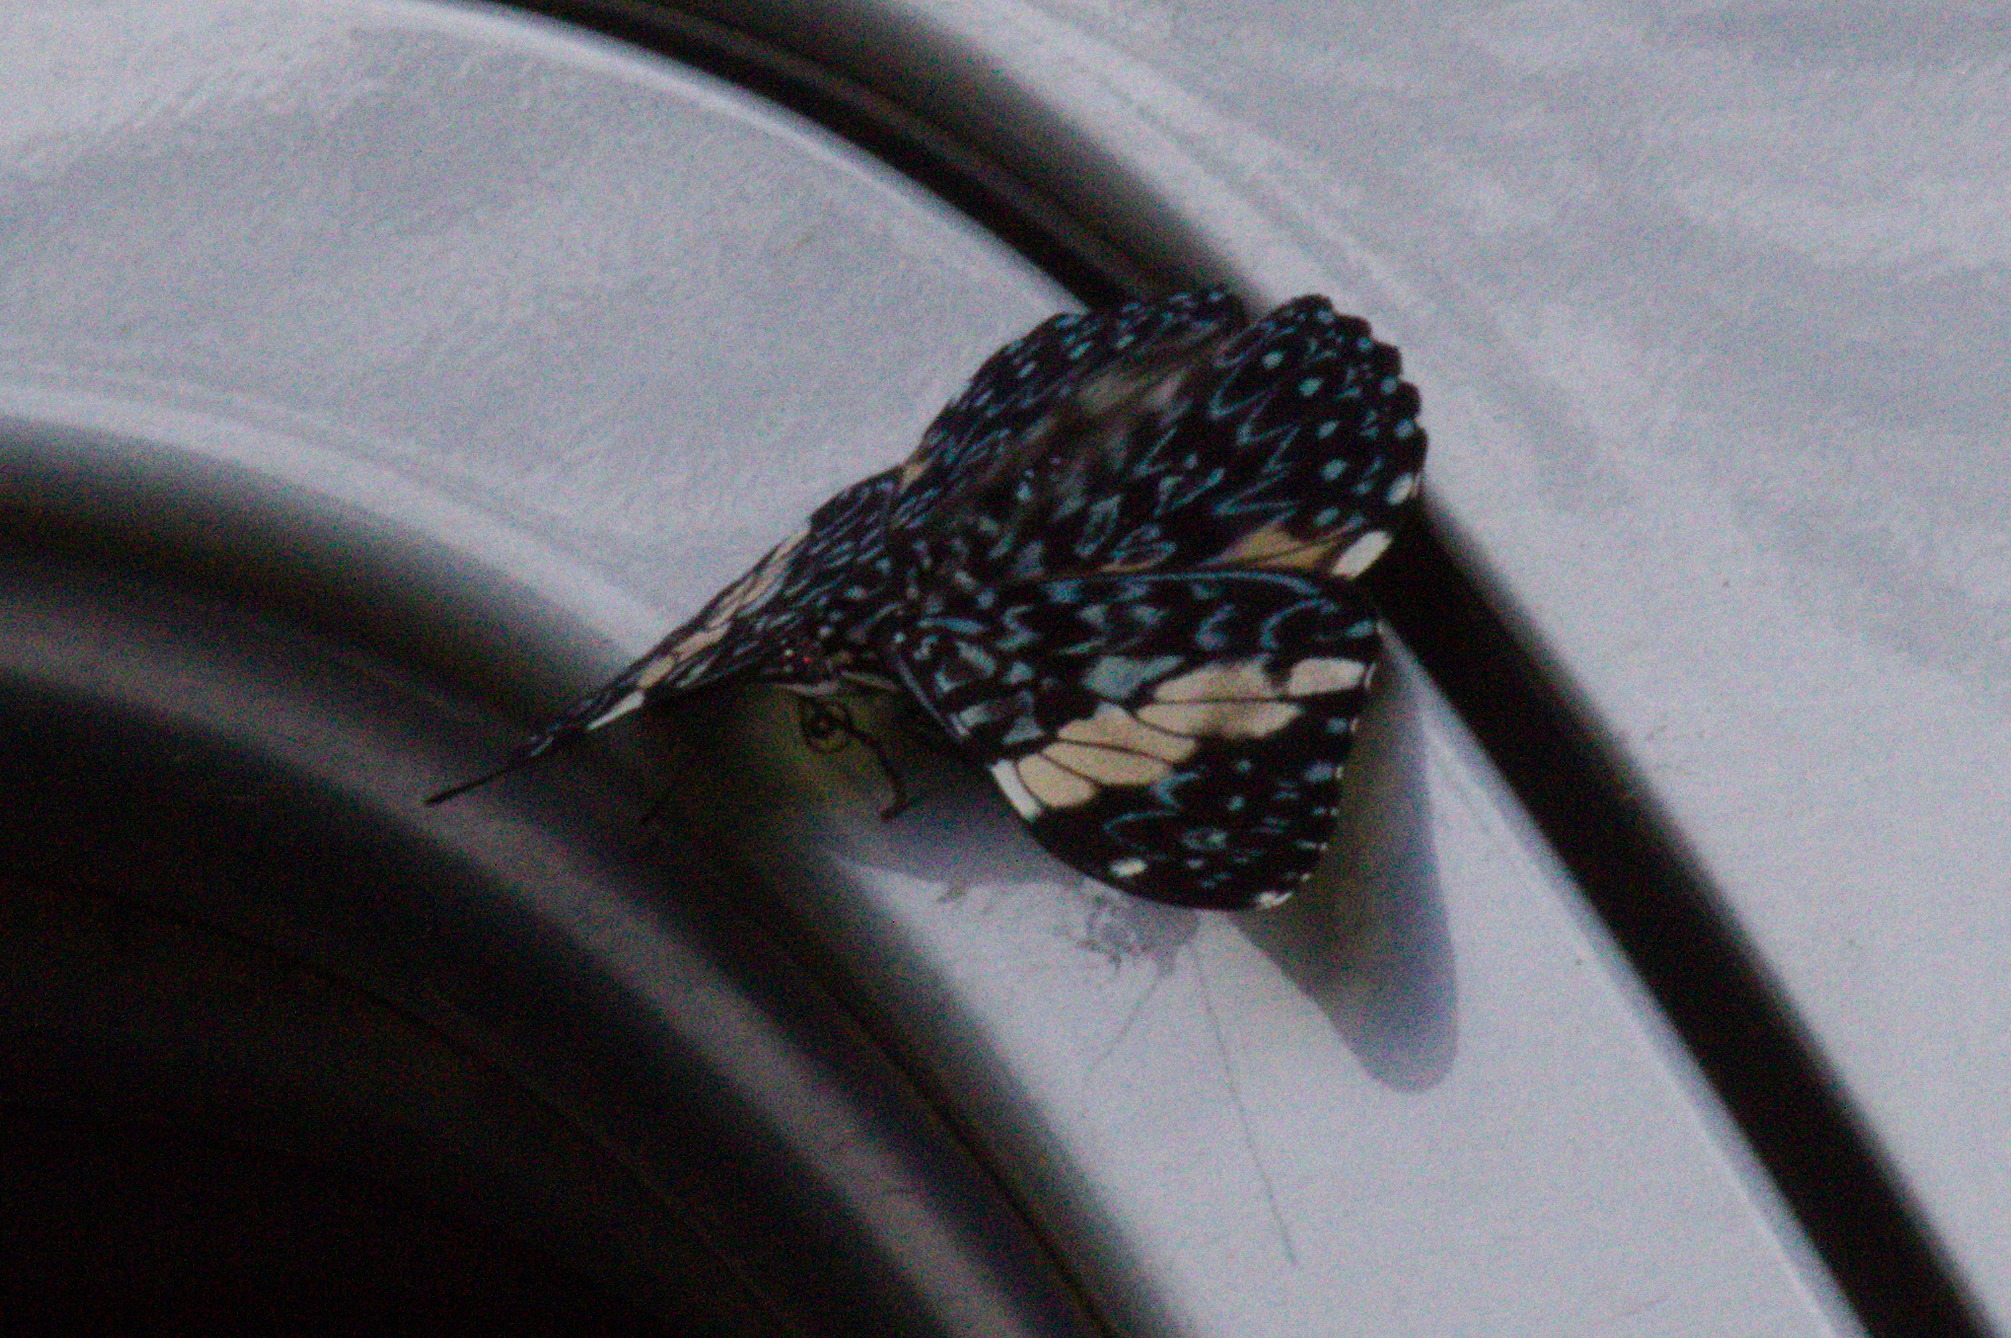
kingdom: Animalia
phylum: Arthropoda
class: Insecta
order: Lepidoptera
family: Nymphalidae
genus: Hamadryas
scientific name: Hamadryas amphinome
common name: Red cracker
